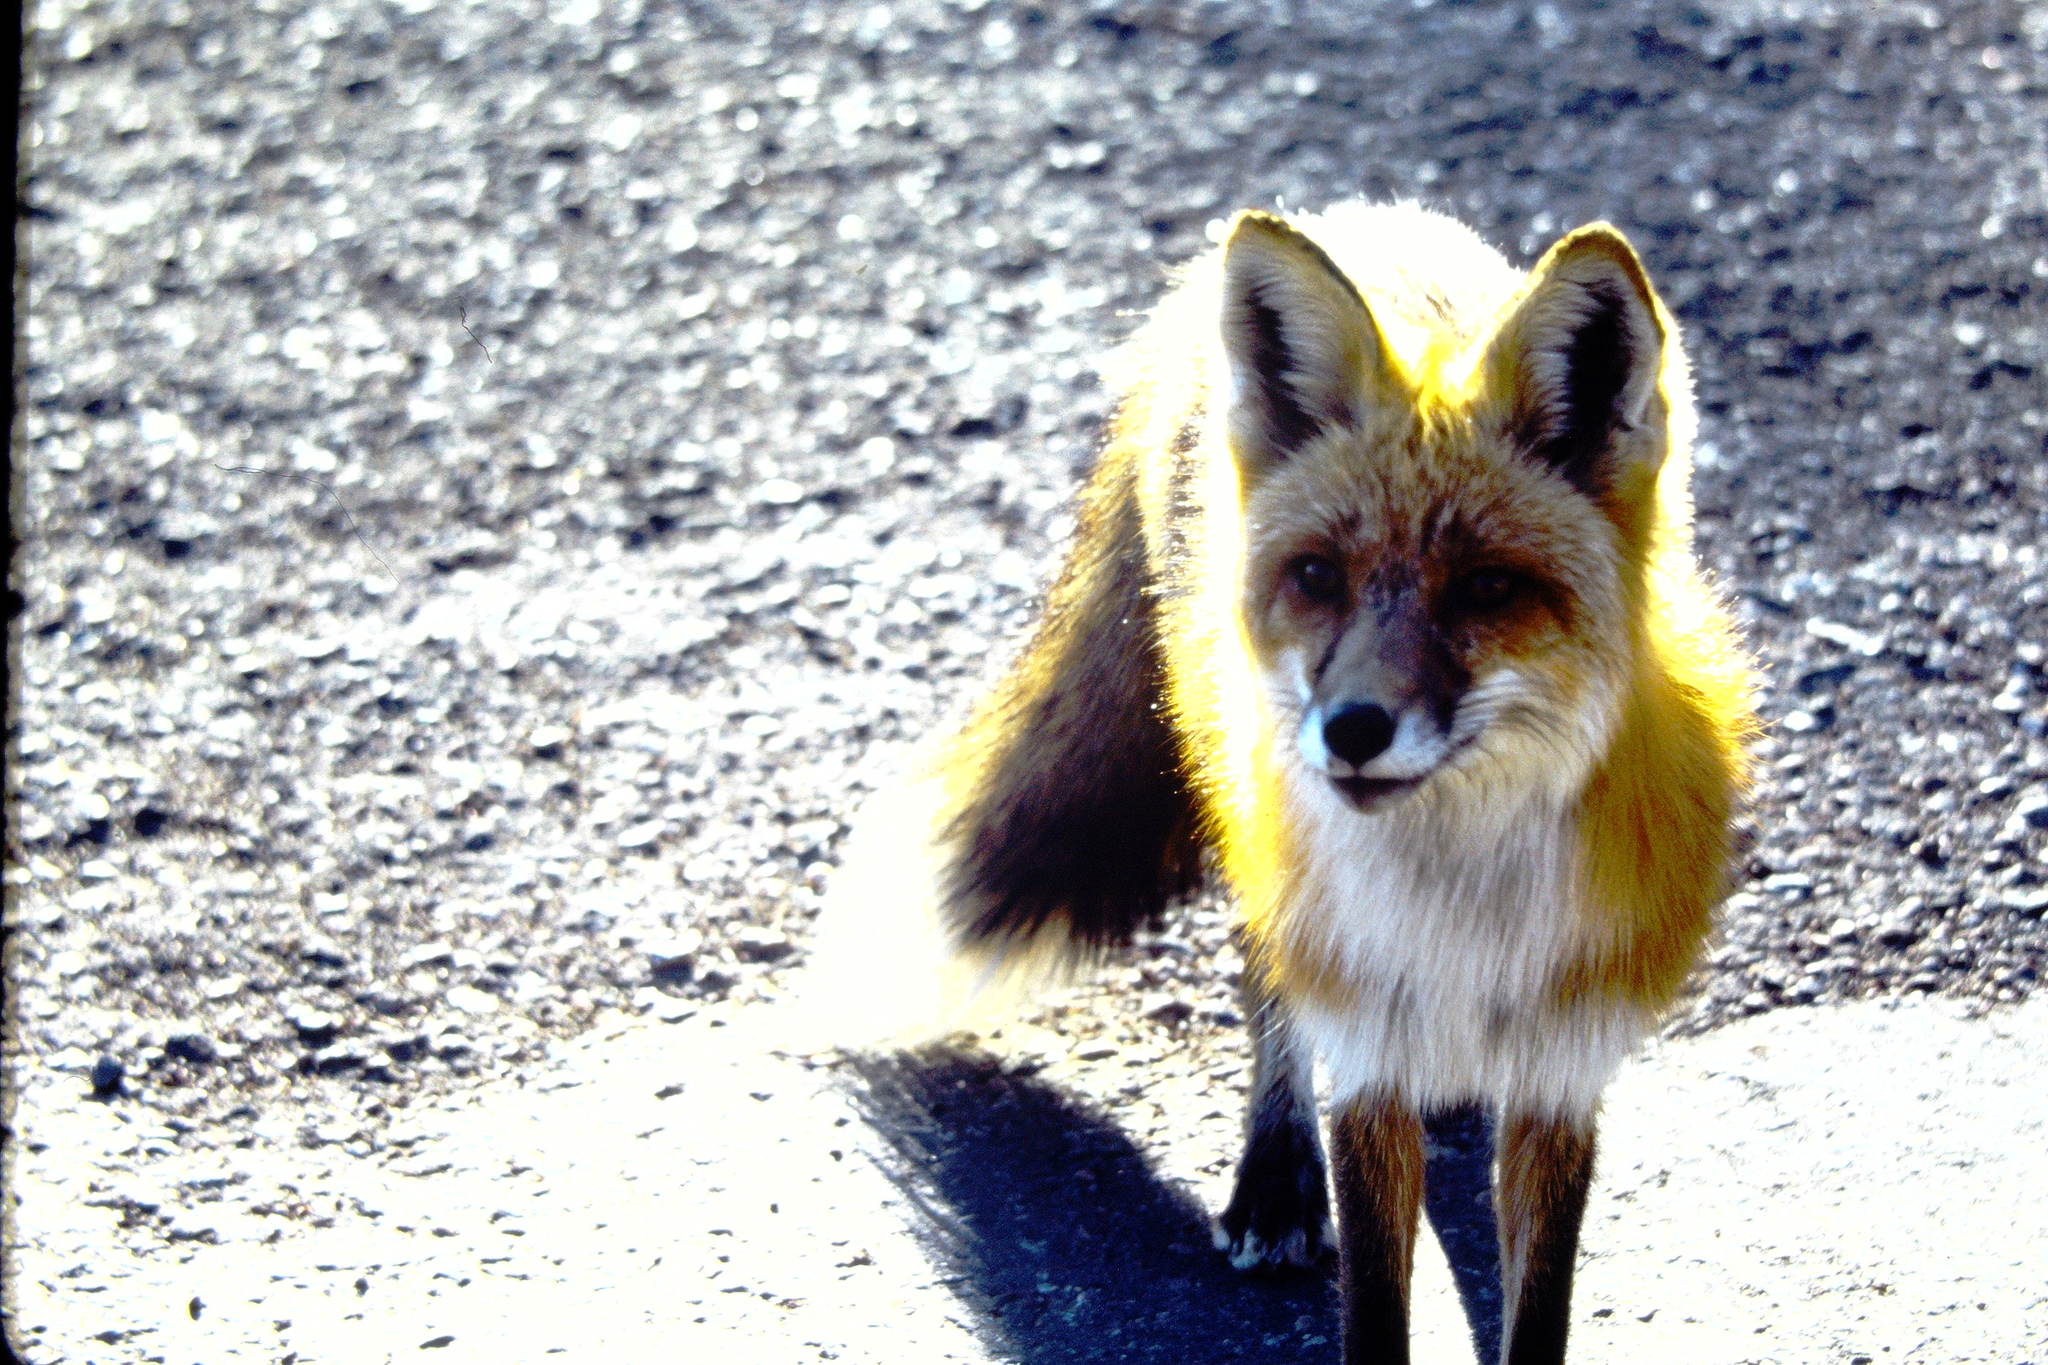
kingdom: Animalia
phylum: Chordata
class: Mammalia
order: Carnivora
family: Canidae
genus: Vulpes
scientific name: Vulpes vulpes
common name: Red fox
